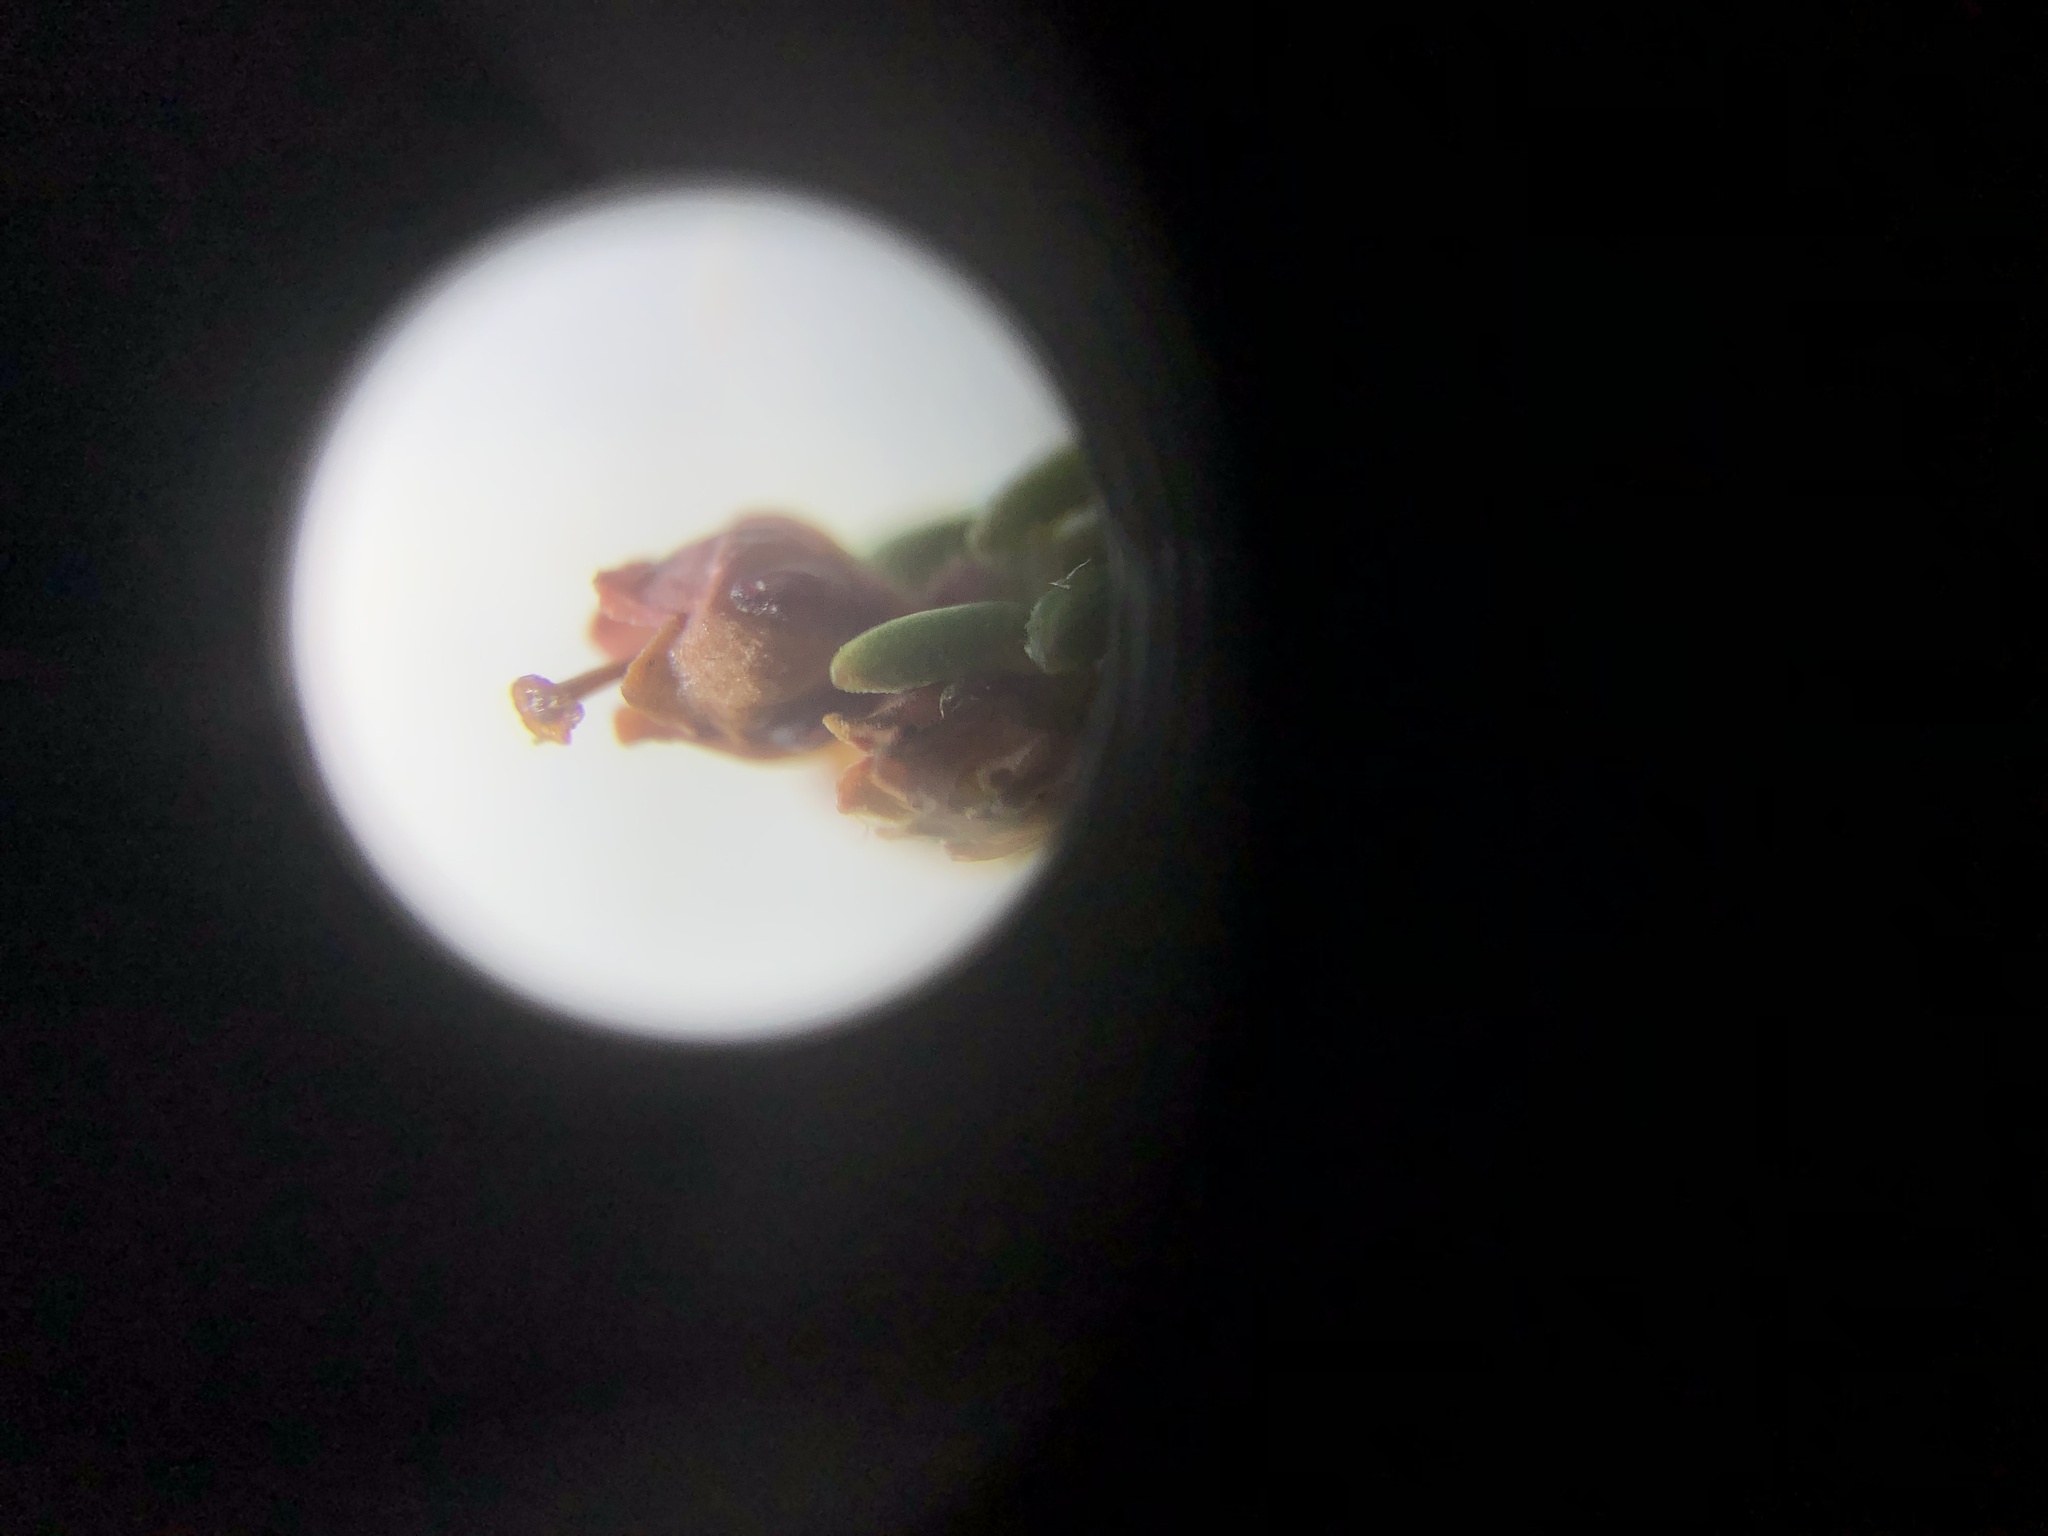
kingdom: Plantae
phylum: Tracheophyta
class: Magnoliopsida
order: Ericales
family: Ericaceae
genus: Erica
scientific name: Erica hispidula
